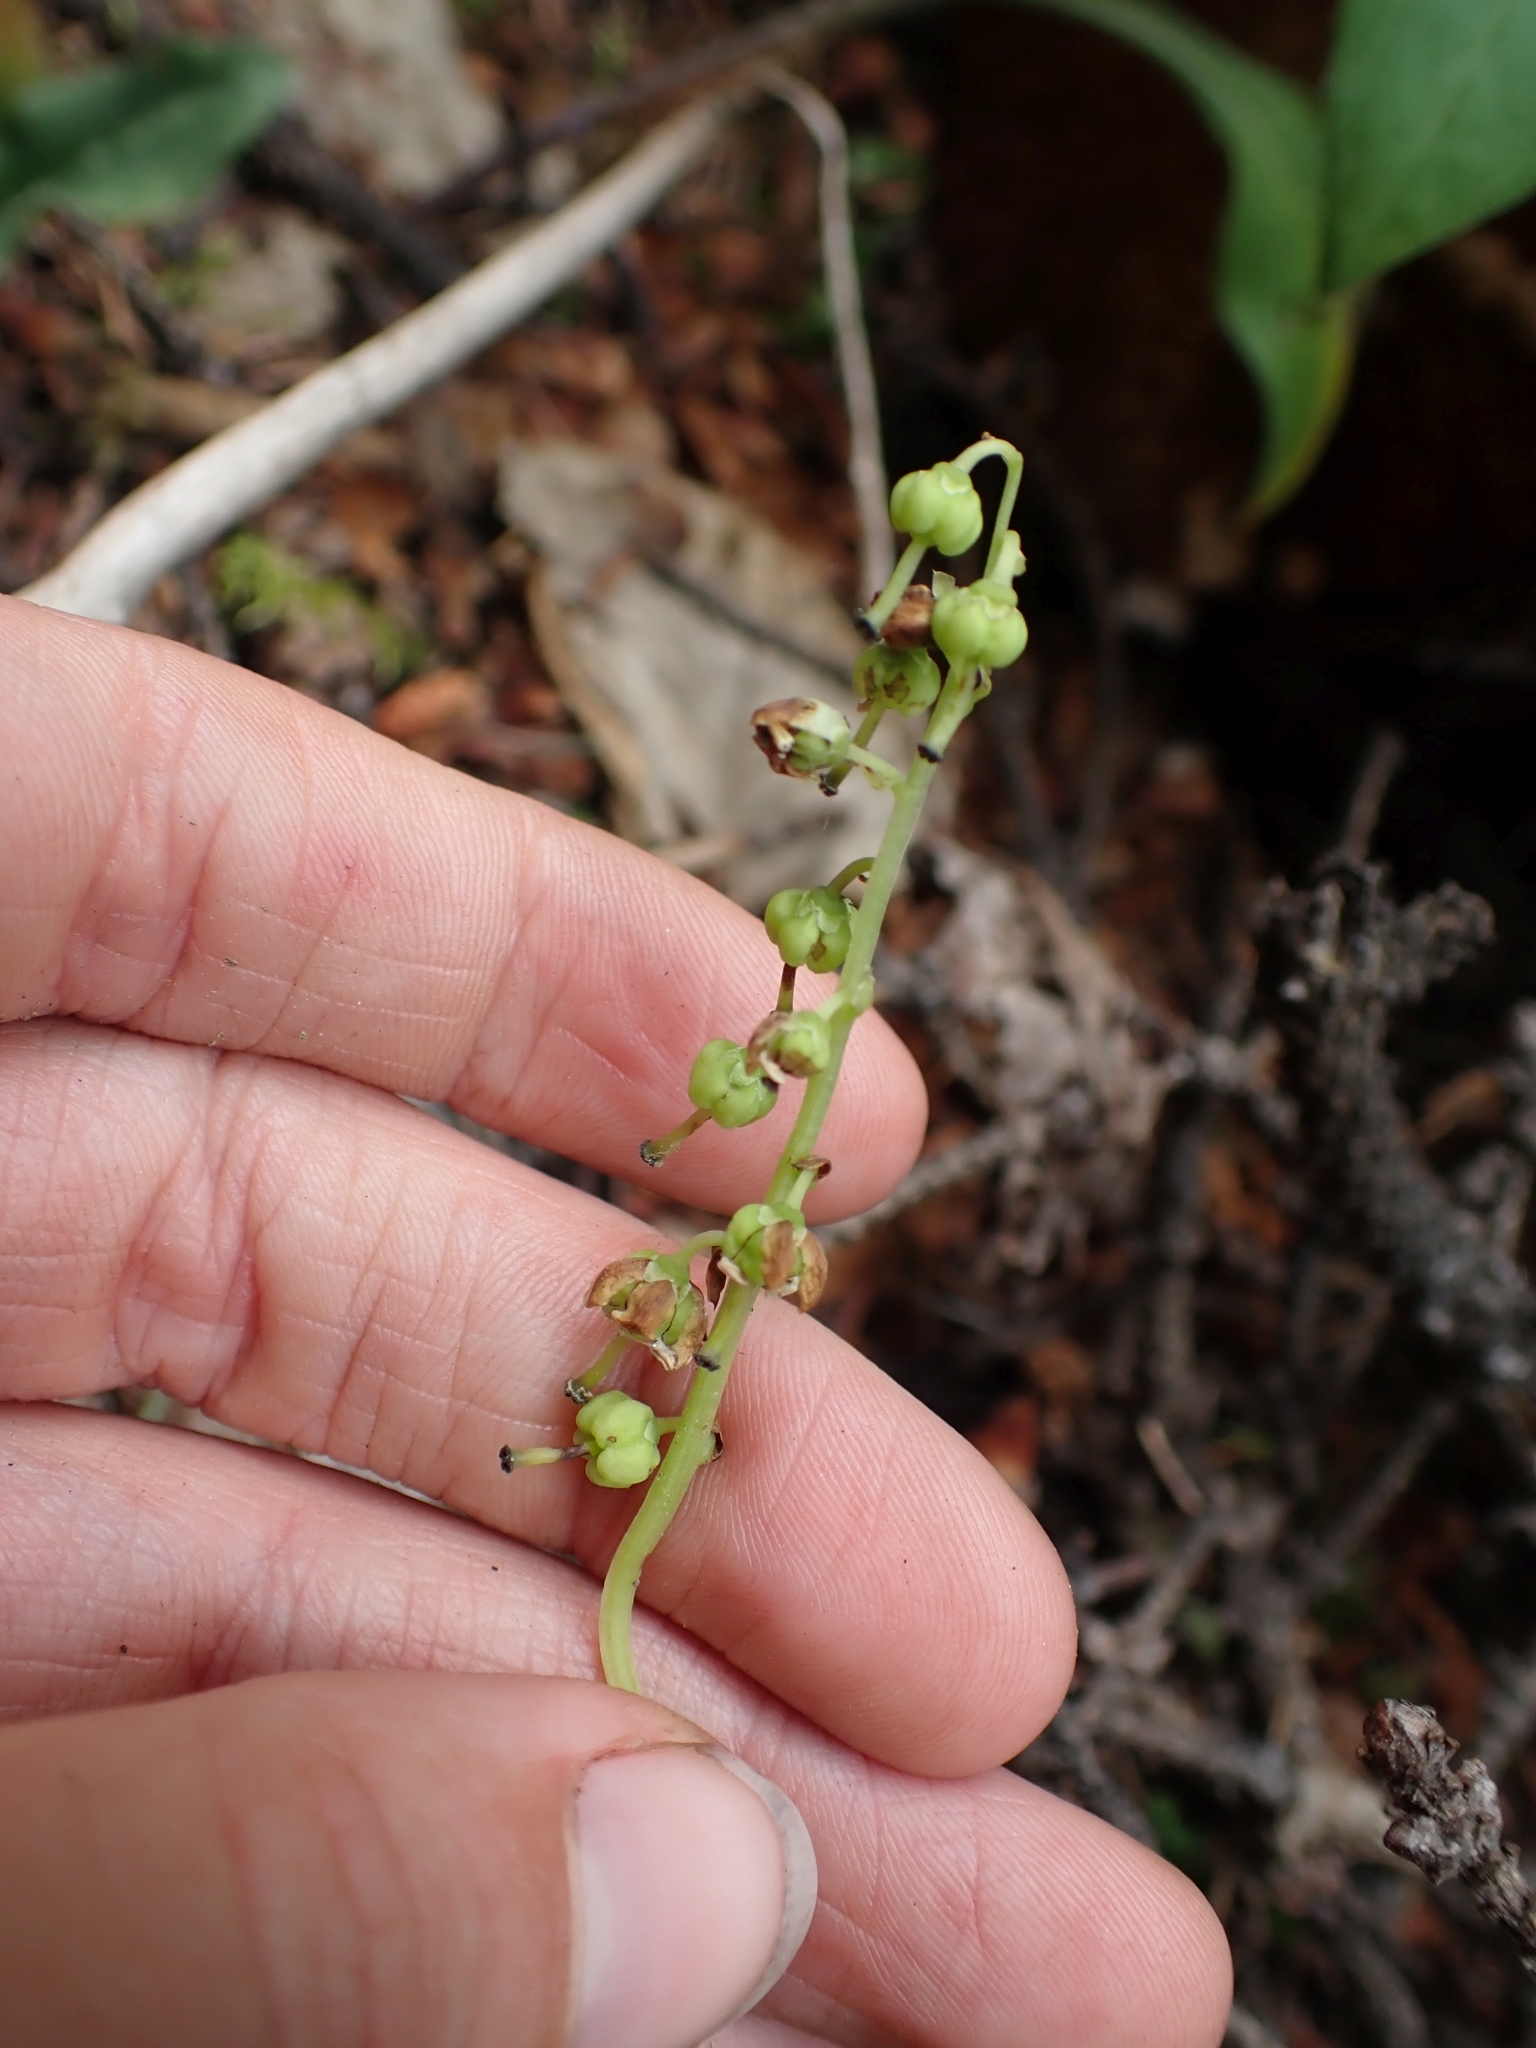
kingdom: Plantae
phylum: Tracheophyta
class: Magnoliopsida
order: Ericales
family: Ericaceae
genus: Orthilia
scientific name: Orthilia secunda
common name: One-sided orthilia
